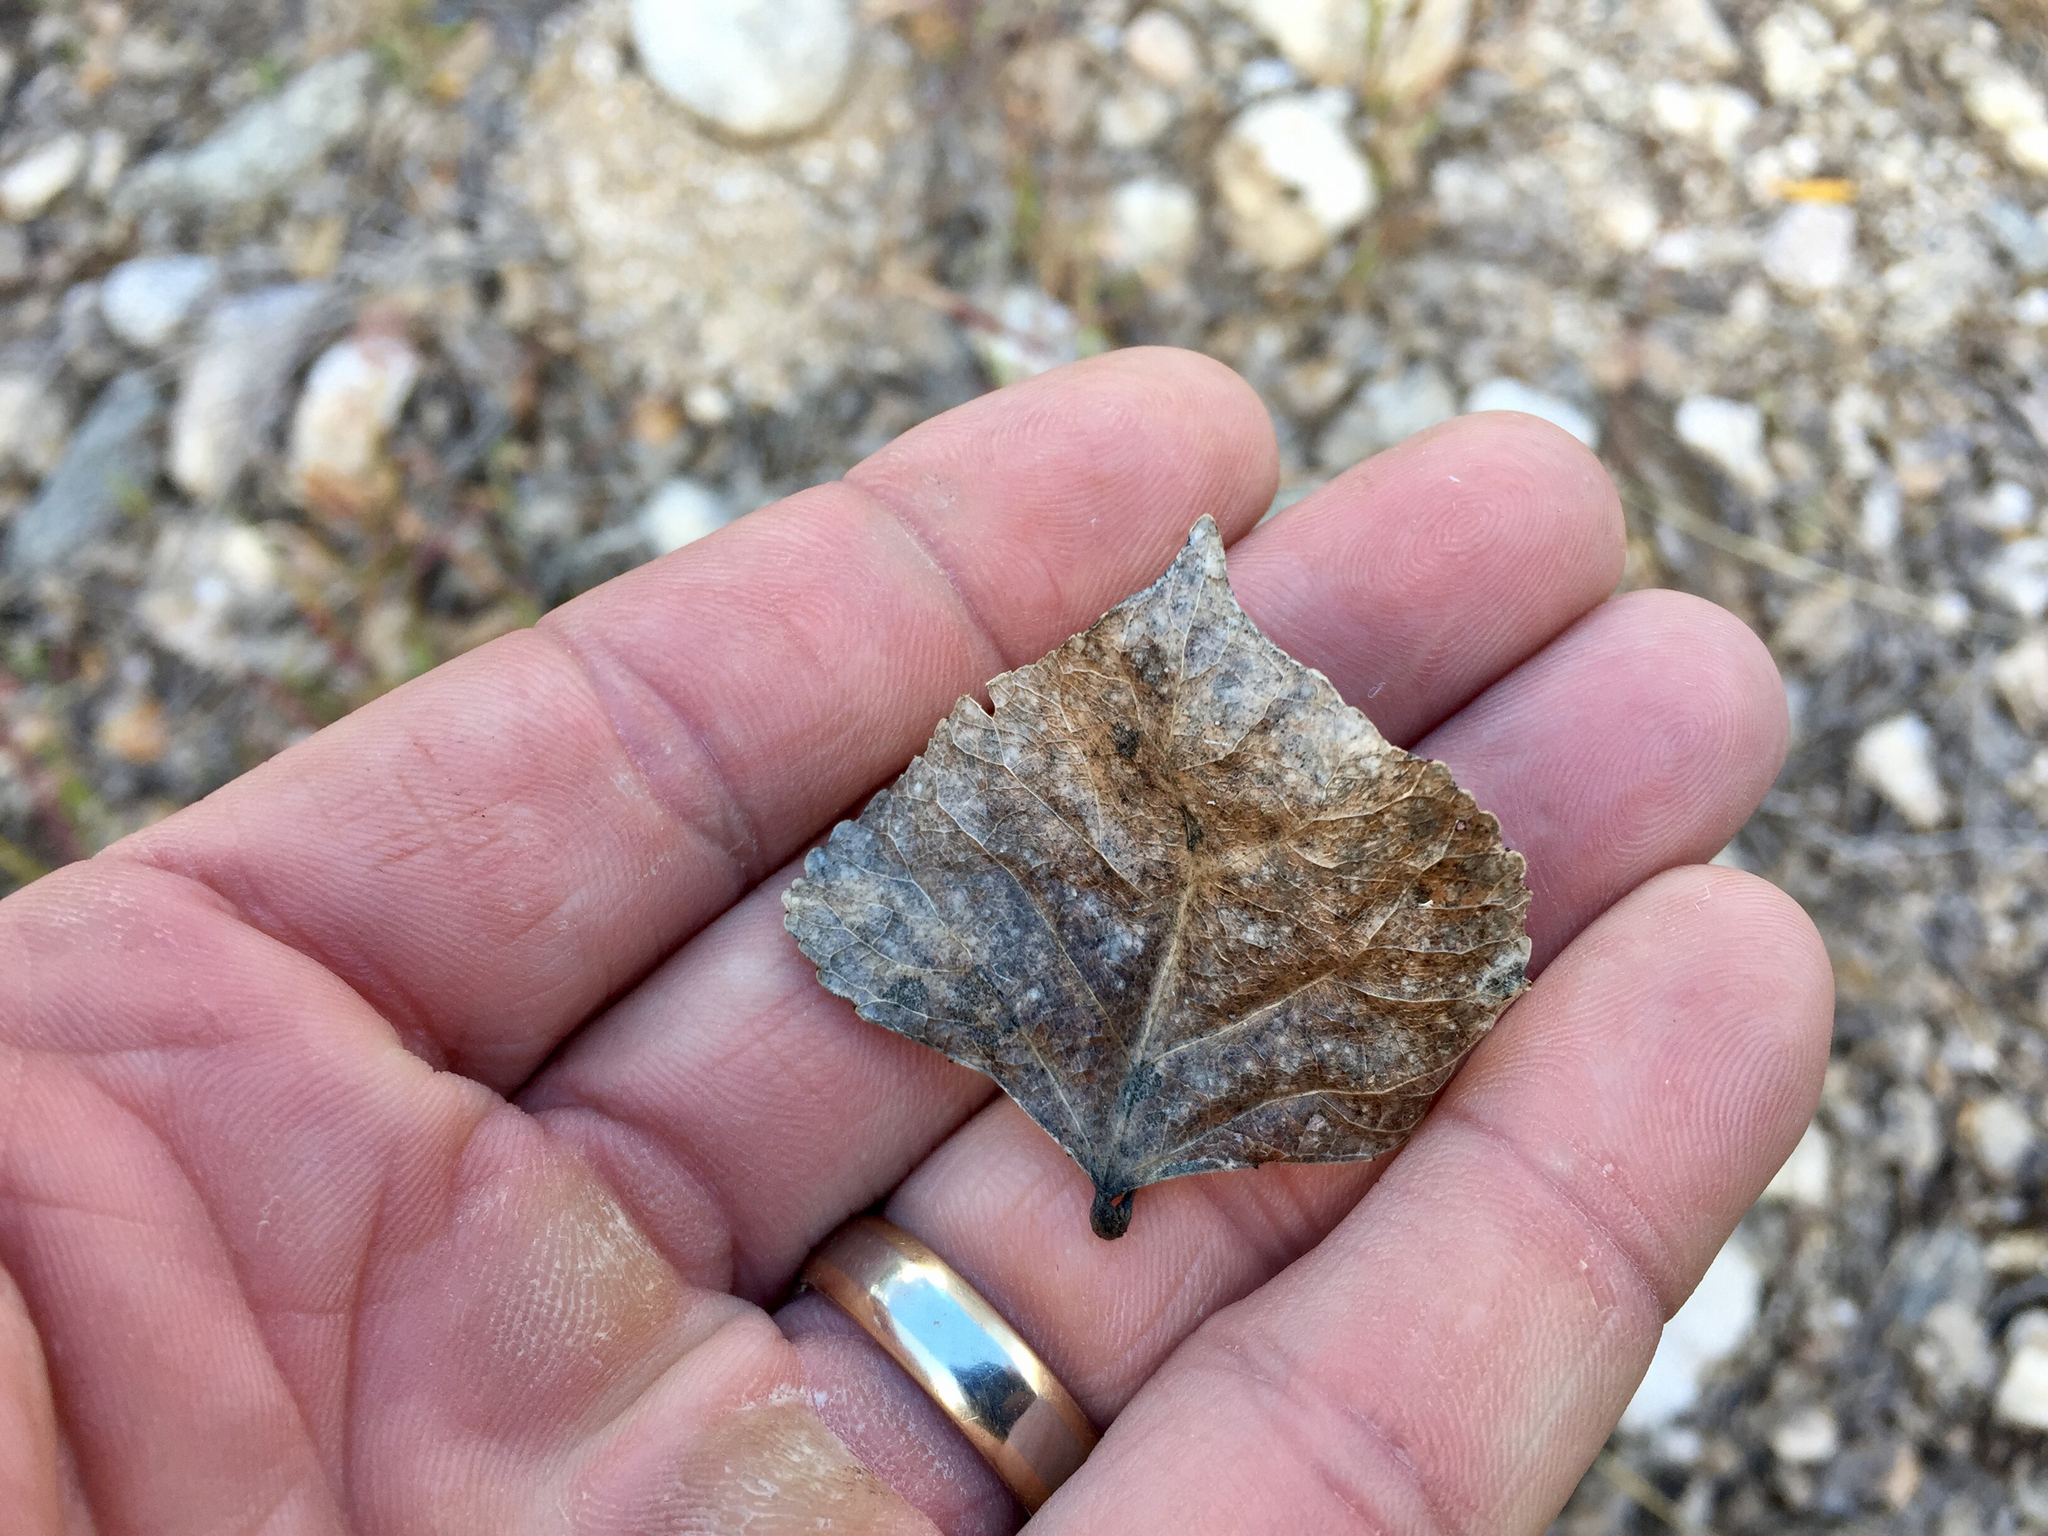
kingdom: Plantae
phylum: Tracheophyta
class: Magnoliopsida
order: Malpighiales
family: Salicaceae
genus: Populus
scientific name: Populus fremontii
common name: Fremont's cottonwood
